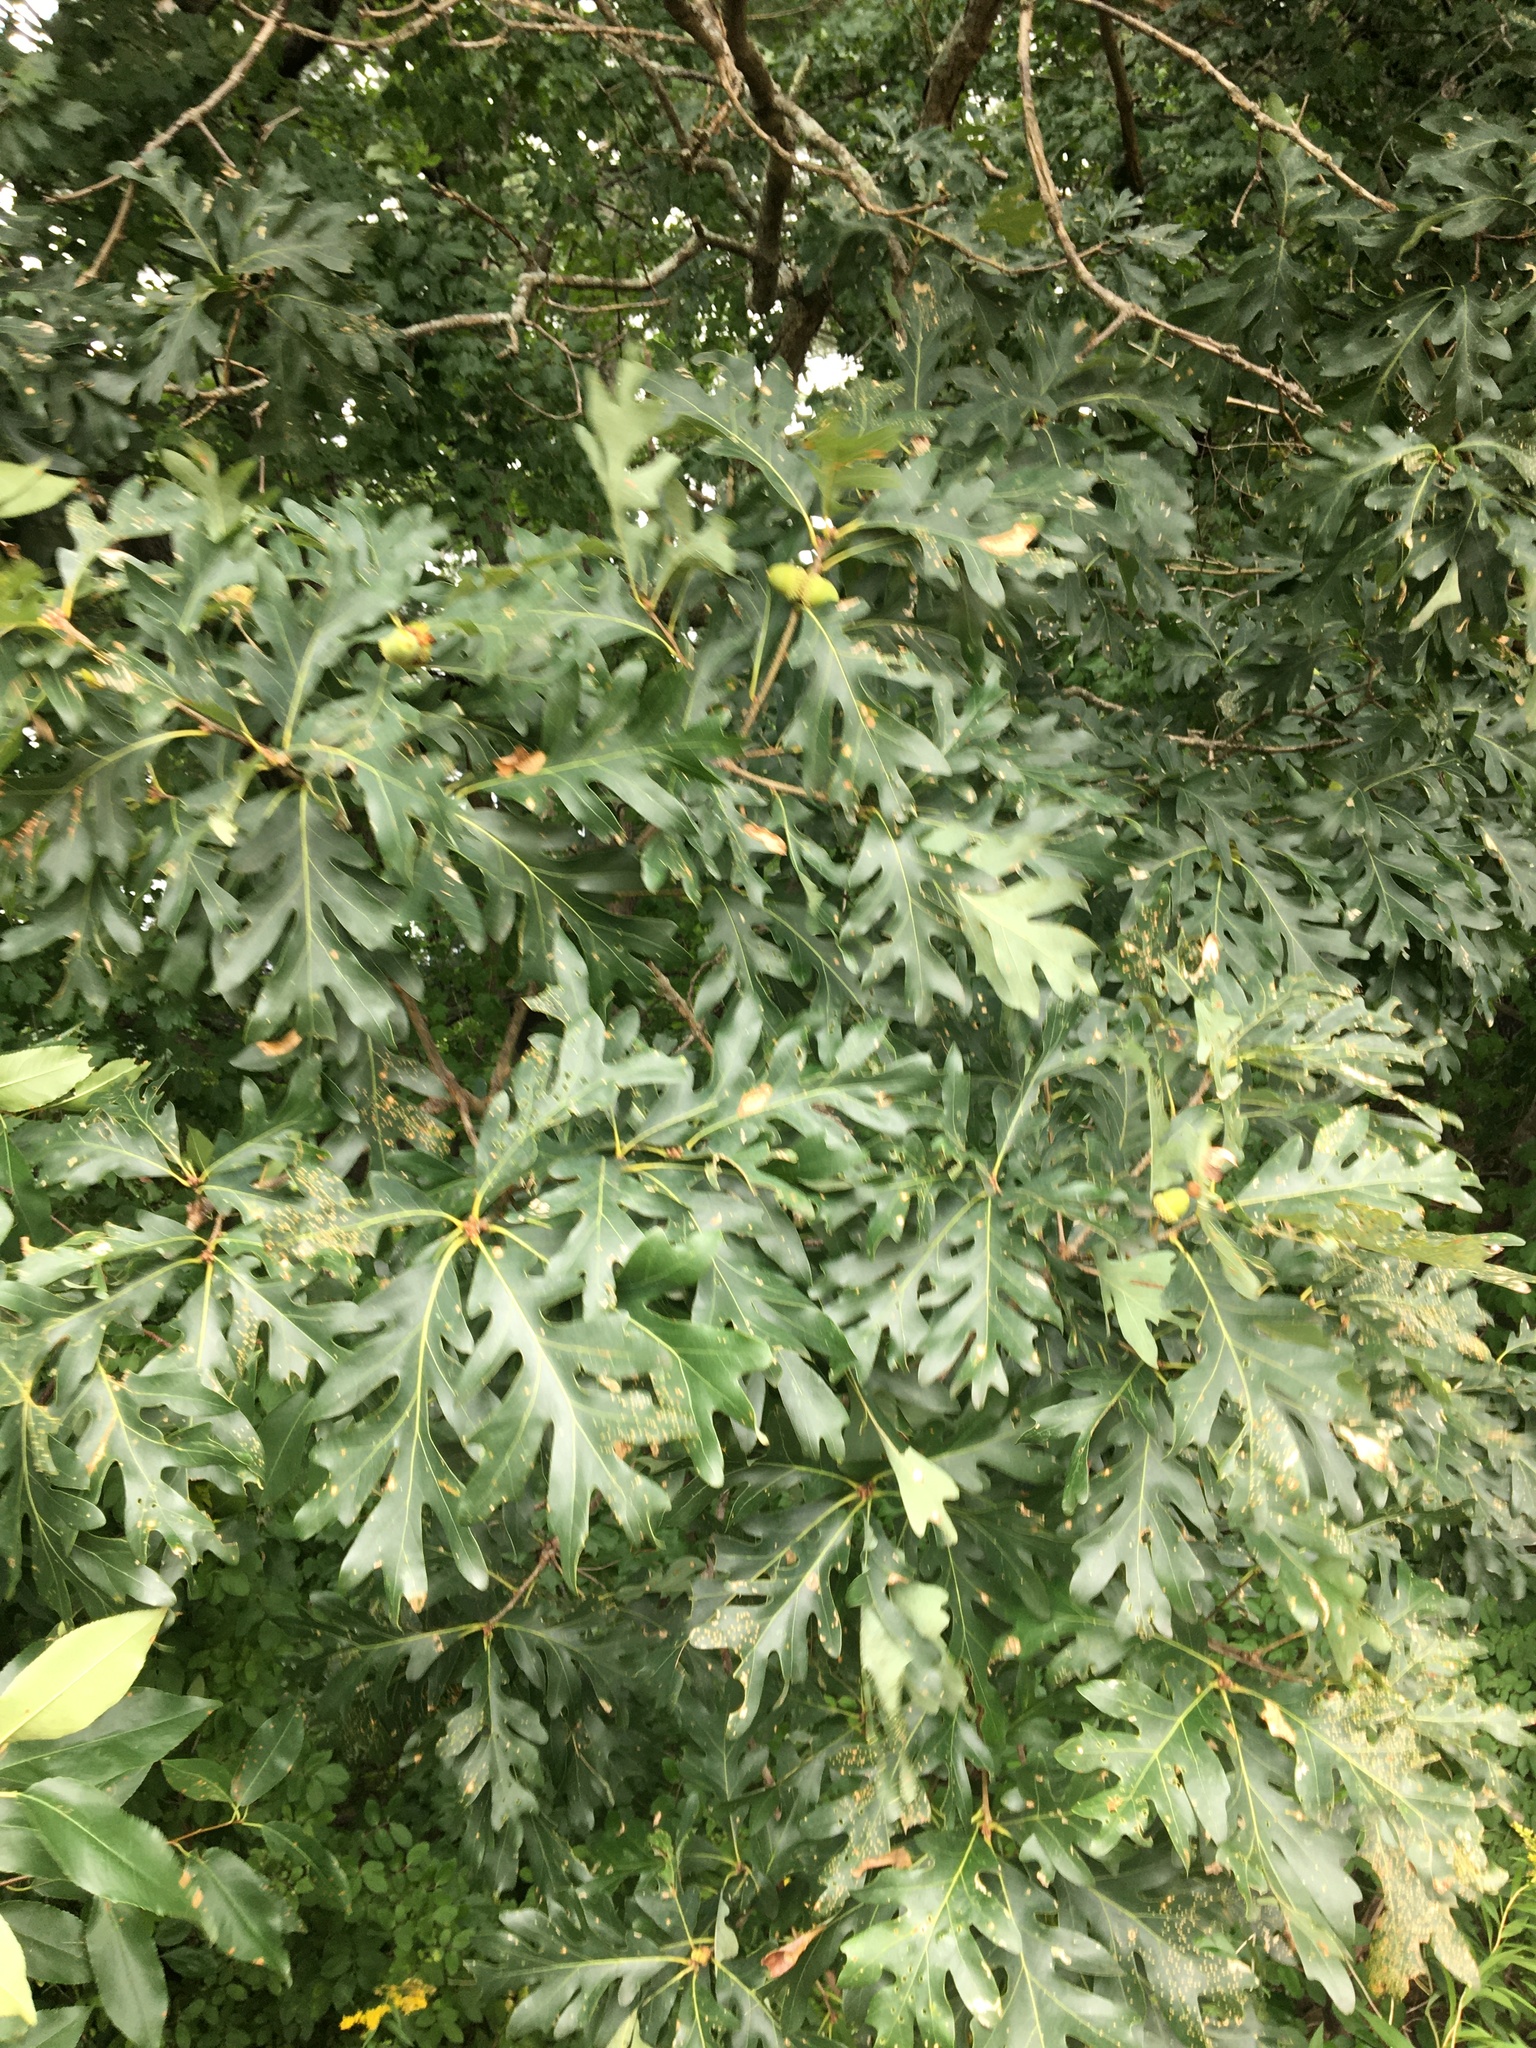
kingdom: Plantae
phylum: Tracheophyta
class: Magnoliopsida
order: Fagales
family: Fagaceae
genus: Quercus
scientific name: Quercus alba
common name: White oak
